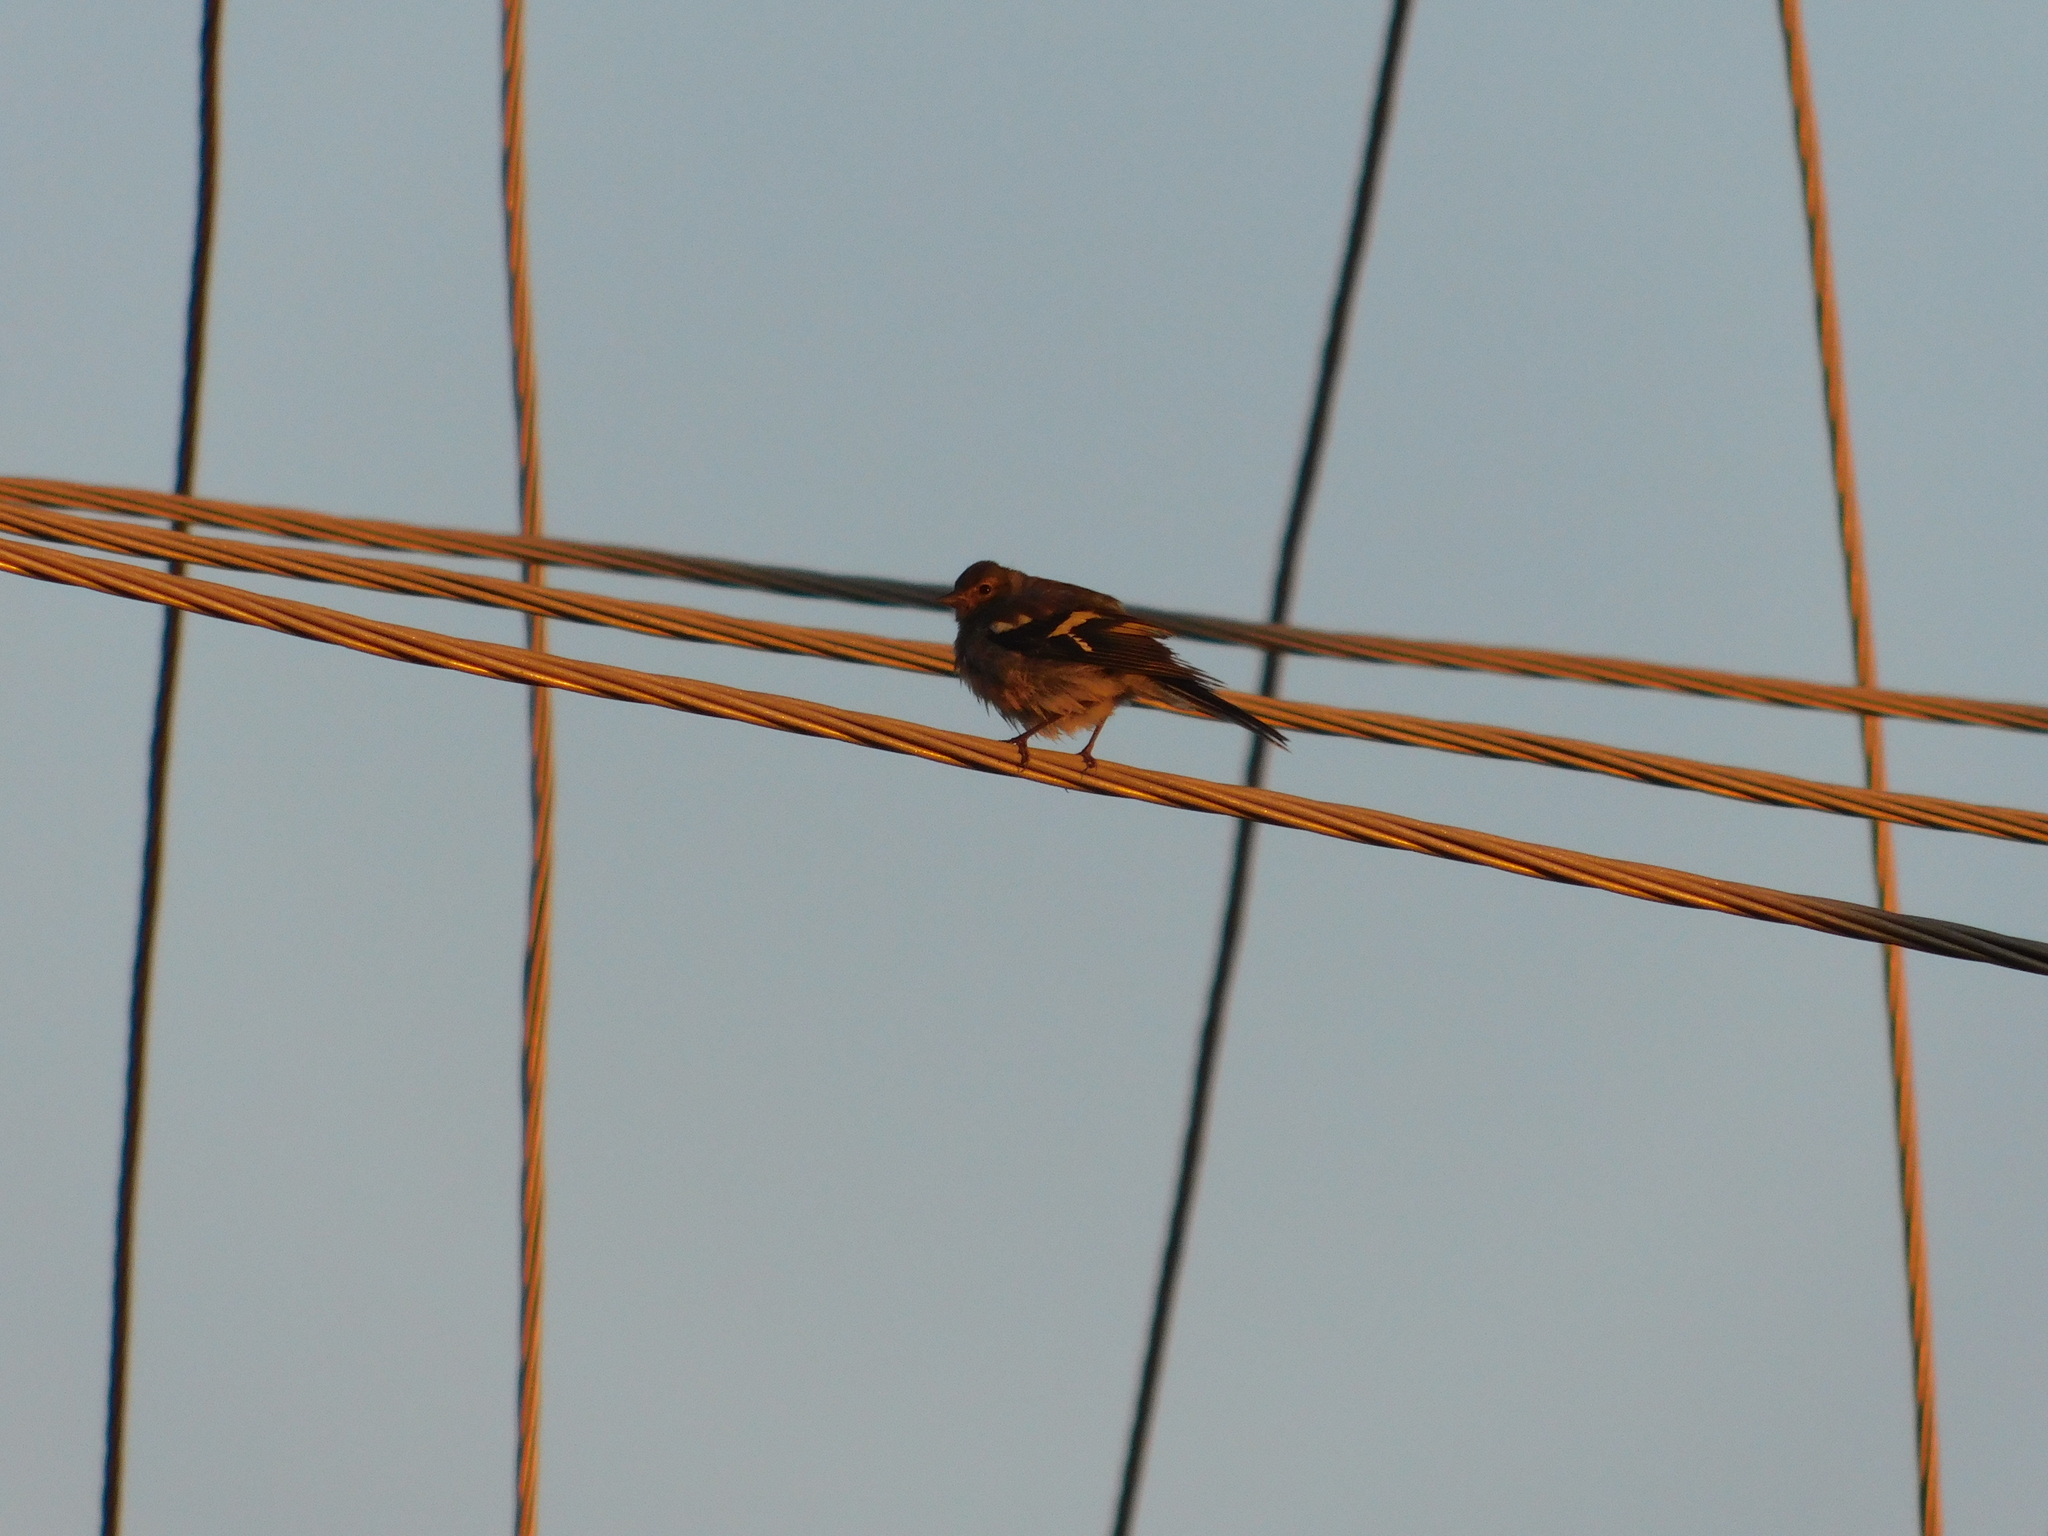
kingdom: Animalia
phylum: Chordata
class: Aves
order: Passeriformes
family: Fringillidae
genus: Fringilla
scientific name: Fringilla coelebs
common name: Common chaffinch
